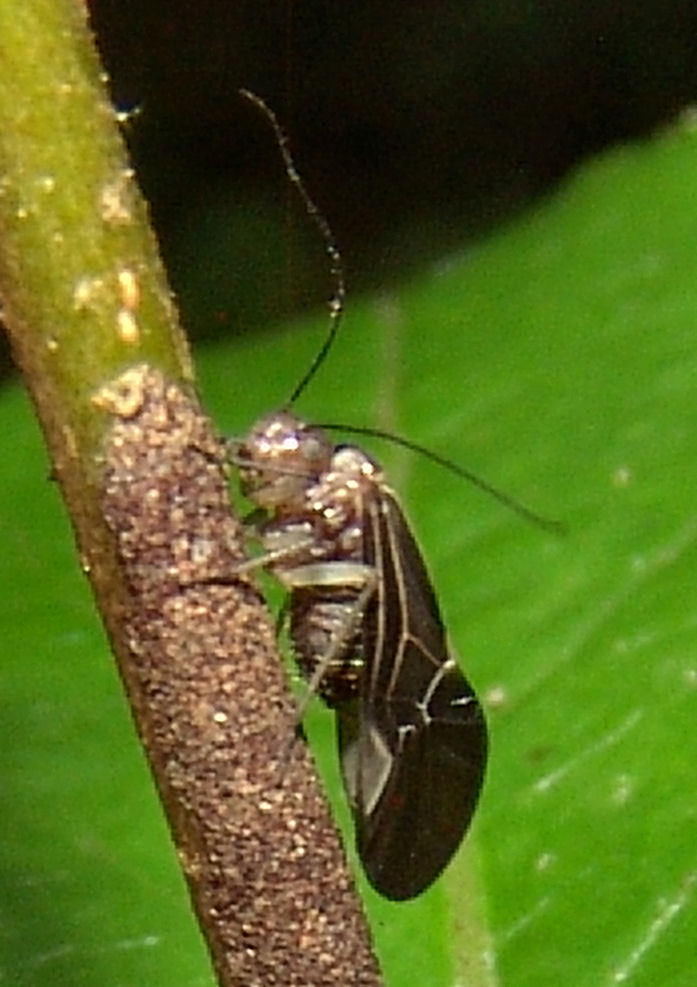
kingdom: Animalia
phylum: Arthropoda
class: Insecta
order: Psocodea
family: Psocidae
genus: Cerastipsocus
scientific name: Cerastipsocus venosus
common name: Tree cattle
